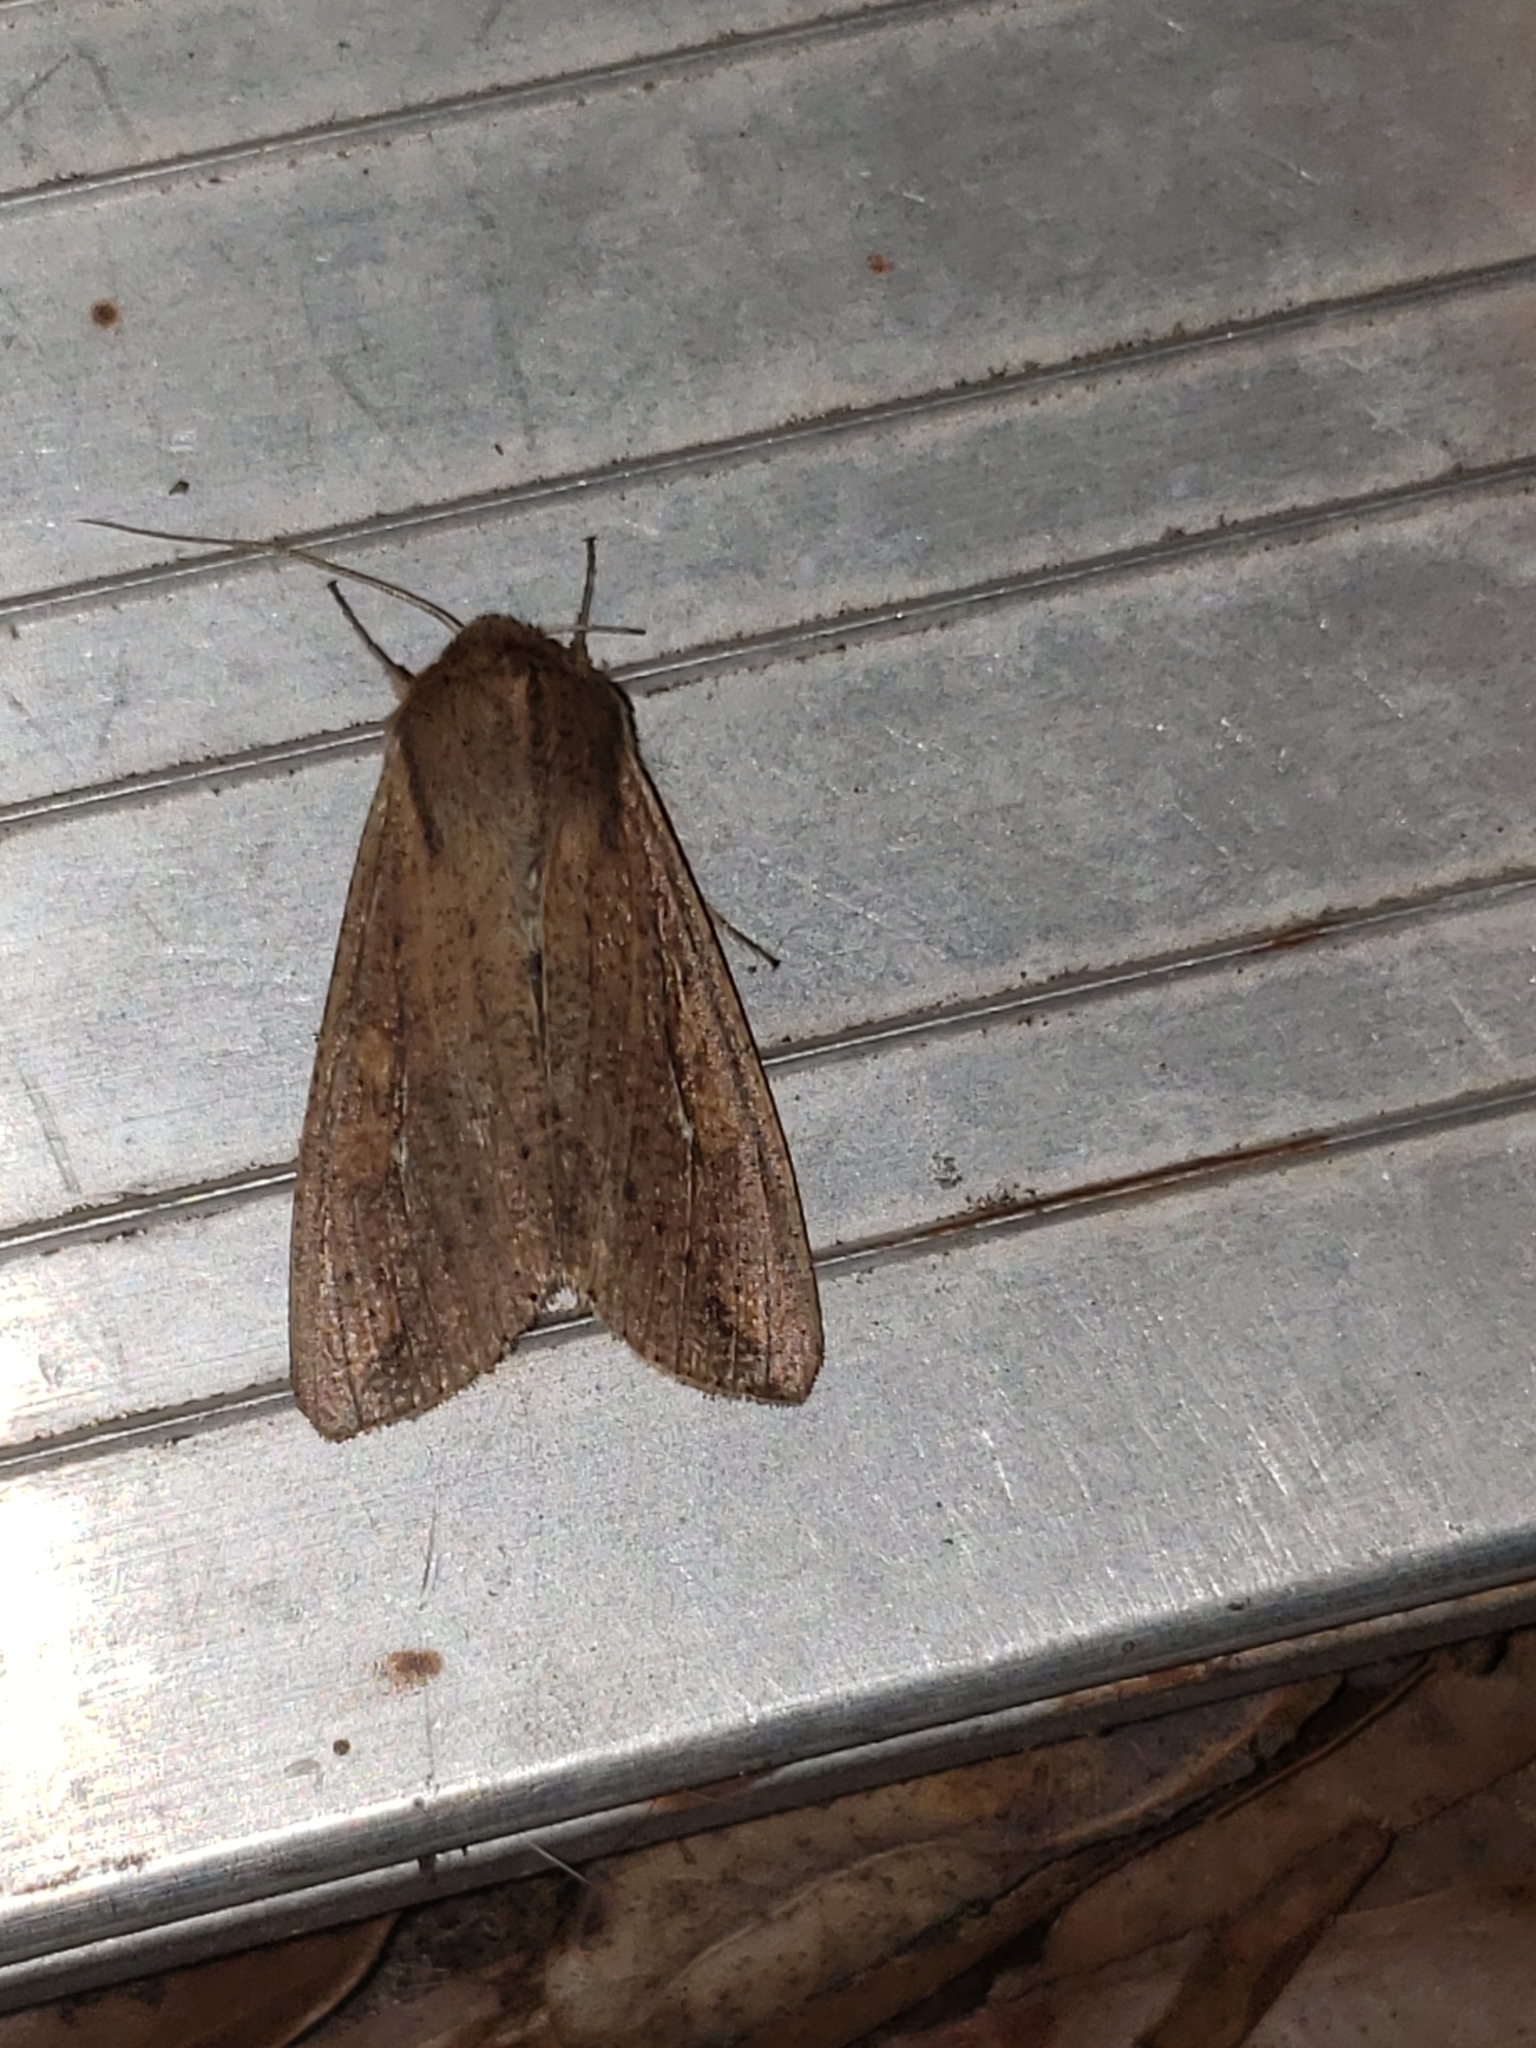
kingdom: Animalia
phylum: Arthropoda
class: Insecta
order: Lepidoptera
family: Noctuidae
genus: Mythimna
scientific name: Mythimna unipuncta
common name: White-speck
